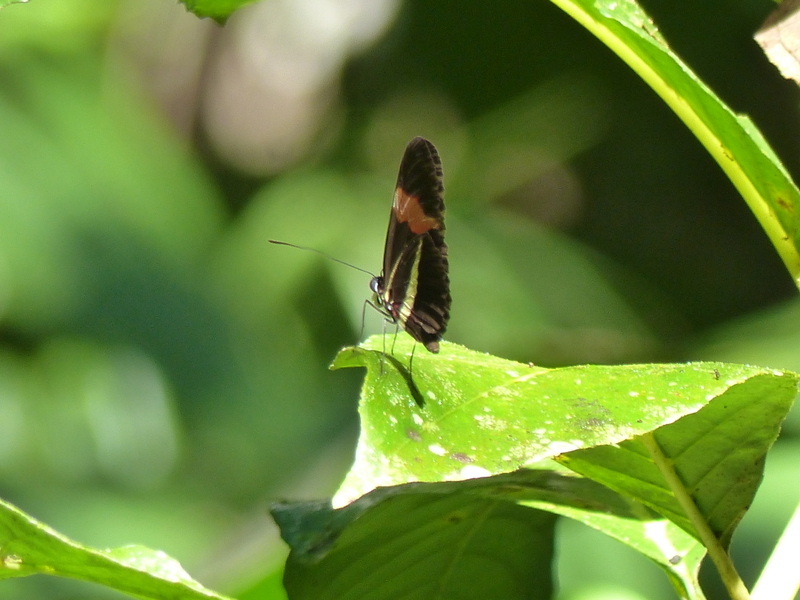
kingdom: Animalia
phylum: Arthropoda
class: Insecta
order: Lepidoptera
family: Nymphalidae
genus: Tirumala
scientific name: Tirumala petiverana
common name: Blue monarch
